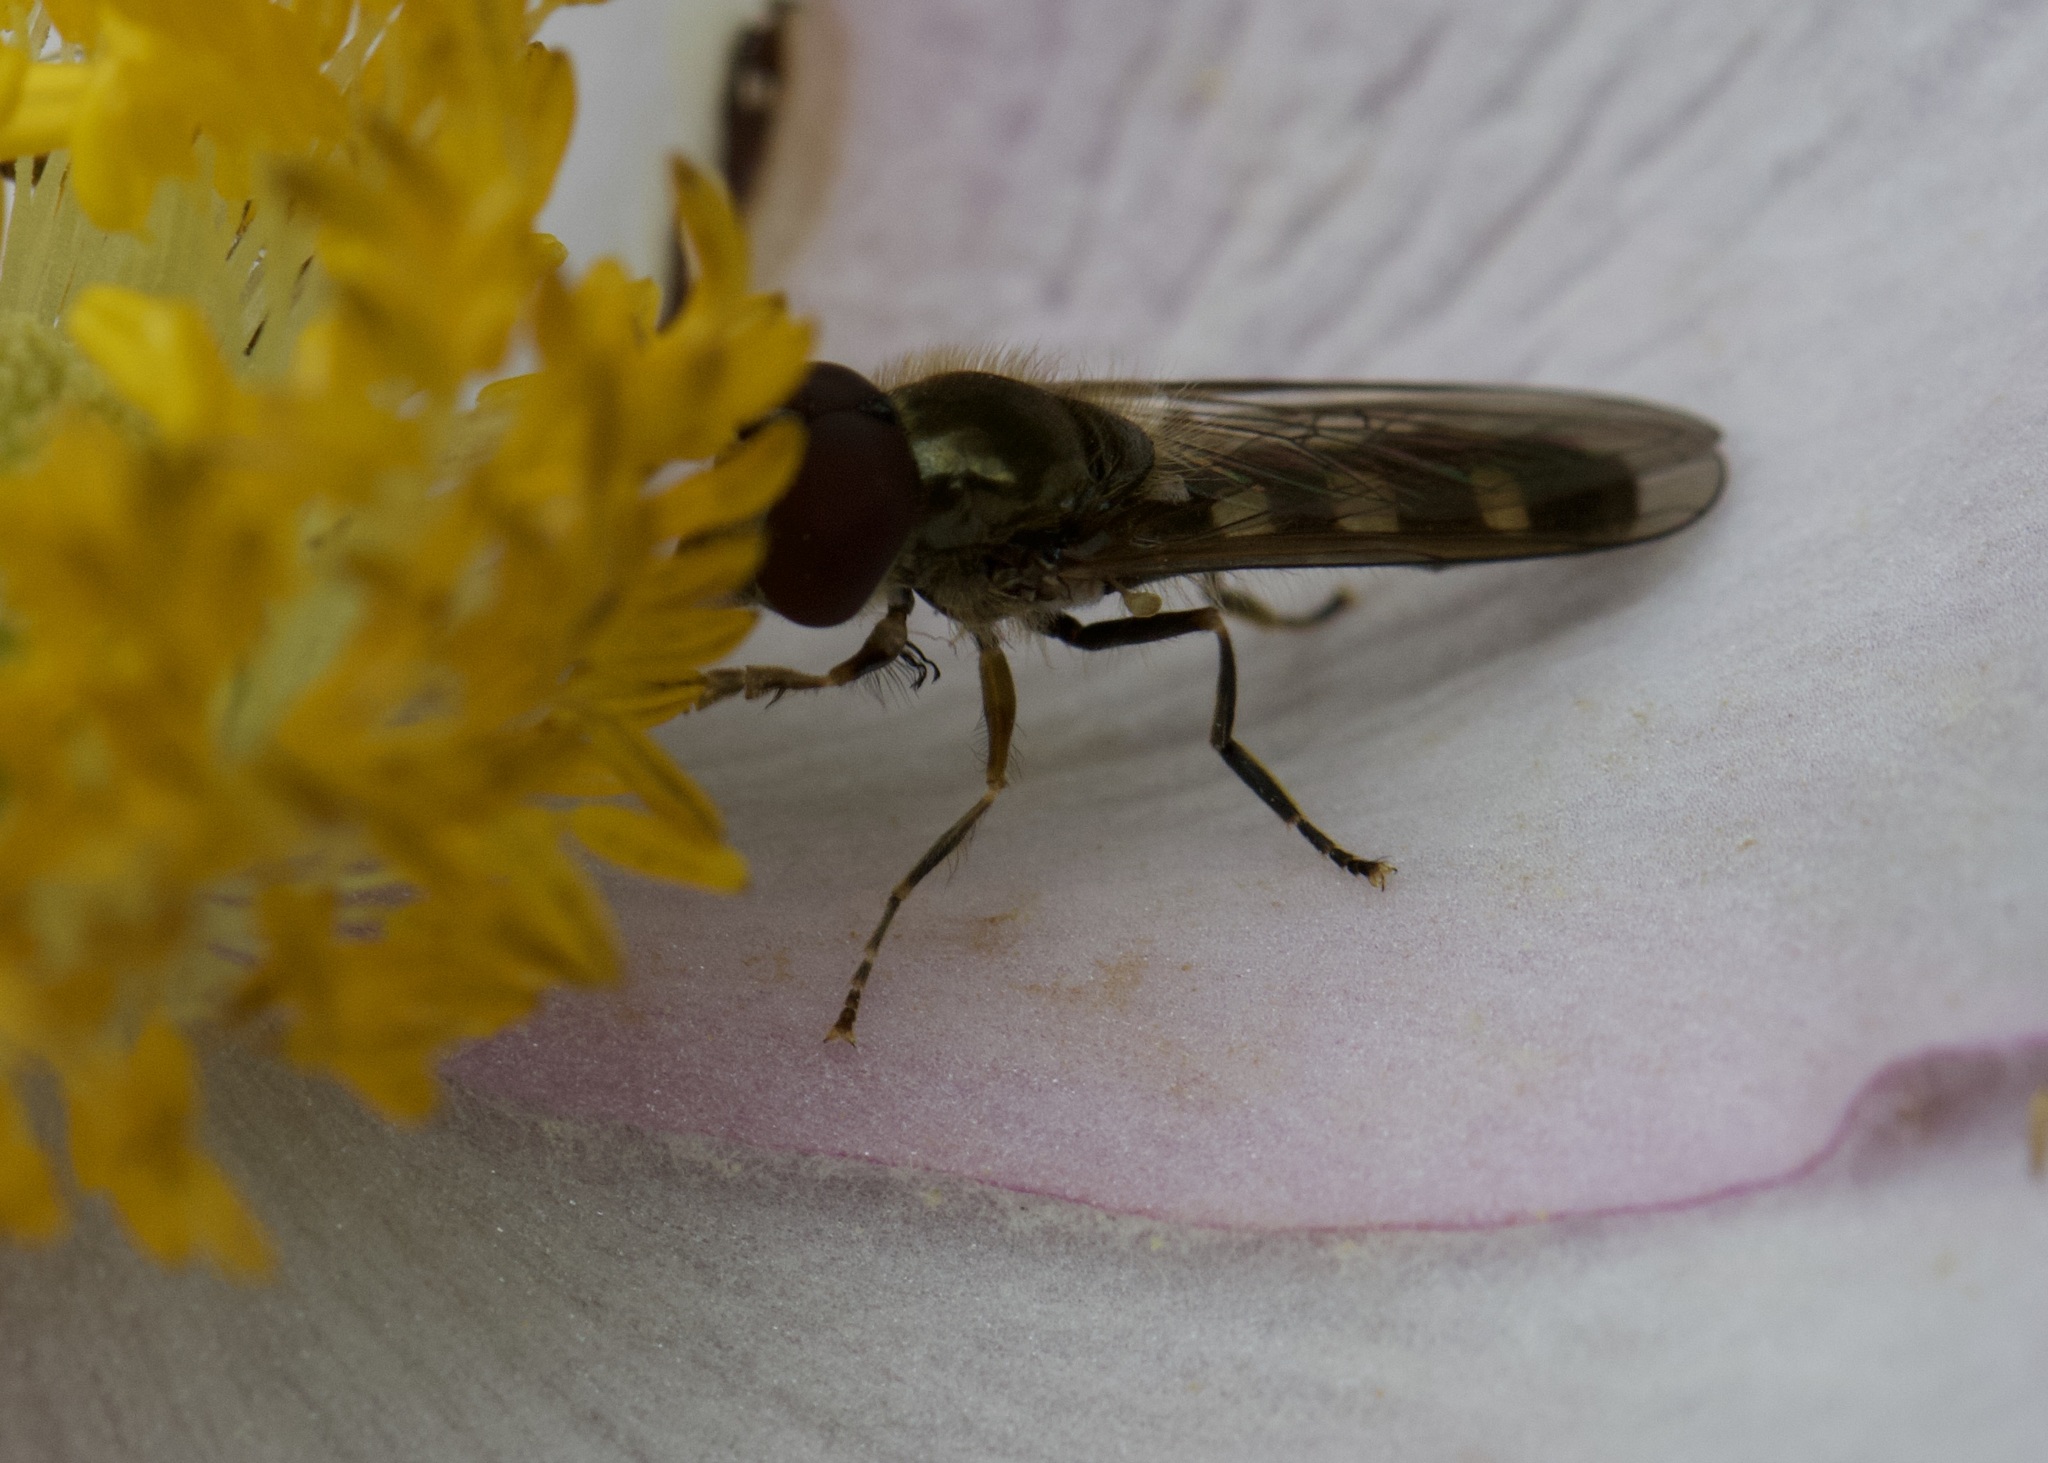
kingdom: Animalia
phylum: Arthropoda
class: Insecta
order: Diptera
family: Syrphidae
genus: Platycheirus
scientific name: Platycheirus scutatus
